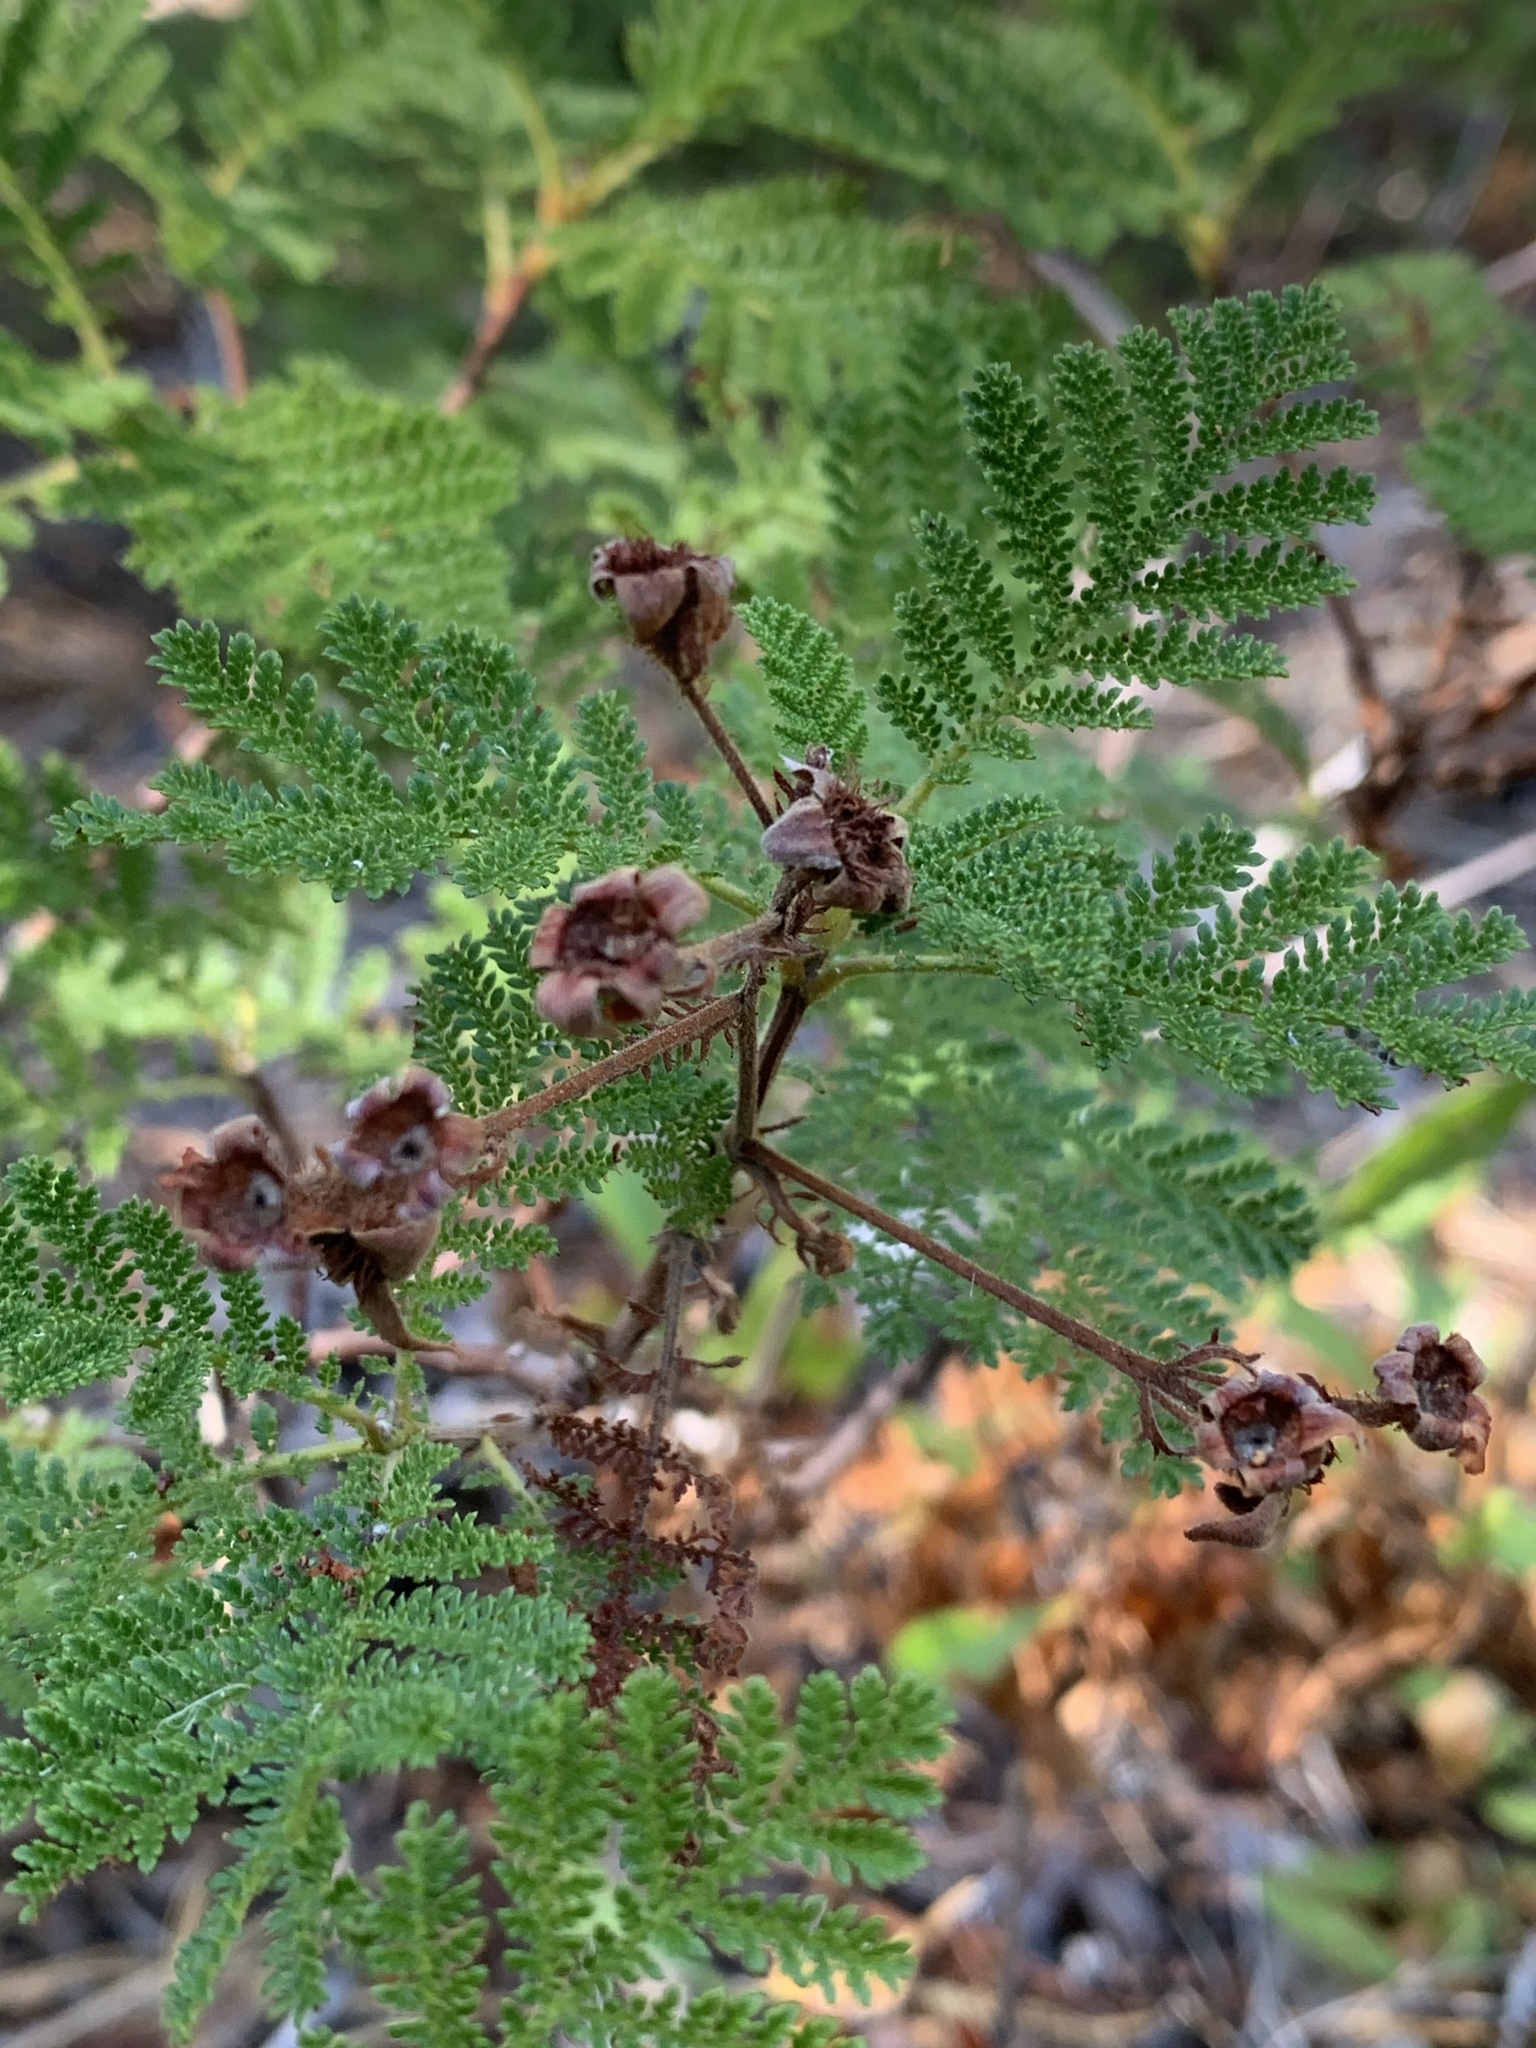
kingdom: Plantae
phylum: Tracheophyta
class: Magnoliopsida
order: Rosales
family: Rosaceae
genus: Chamaebatia
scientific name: Chamaebatia foliolosa
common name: Mountain misery
